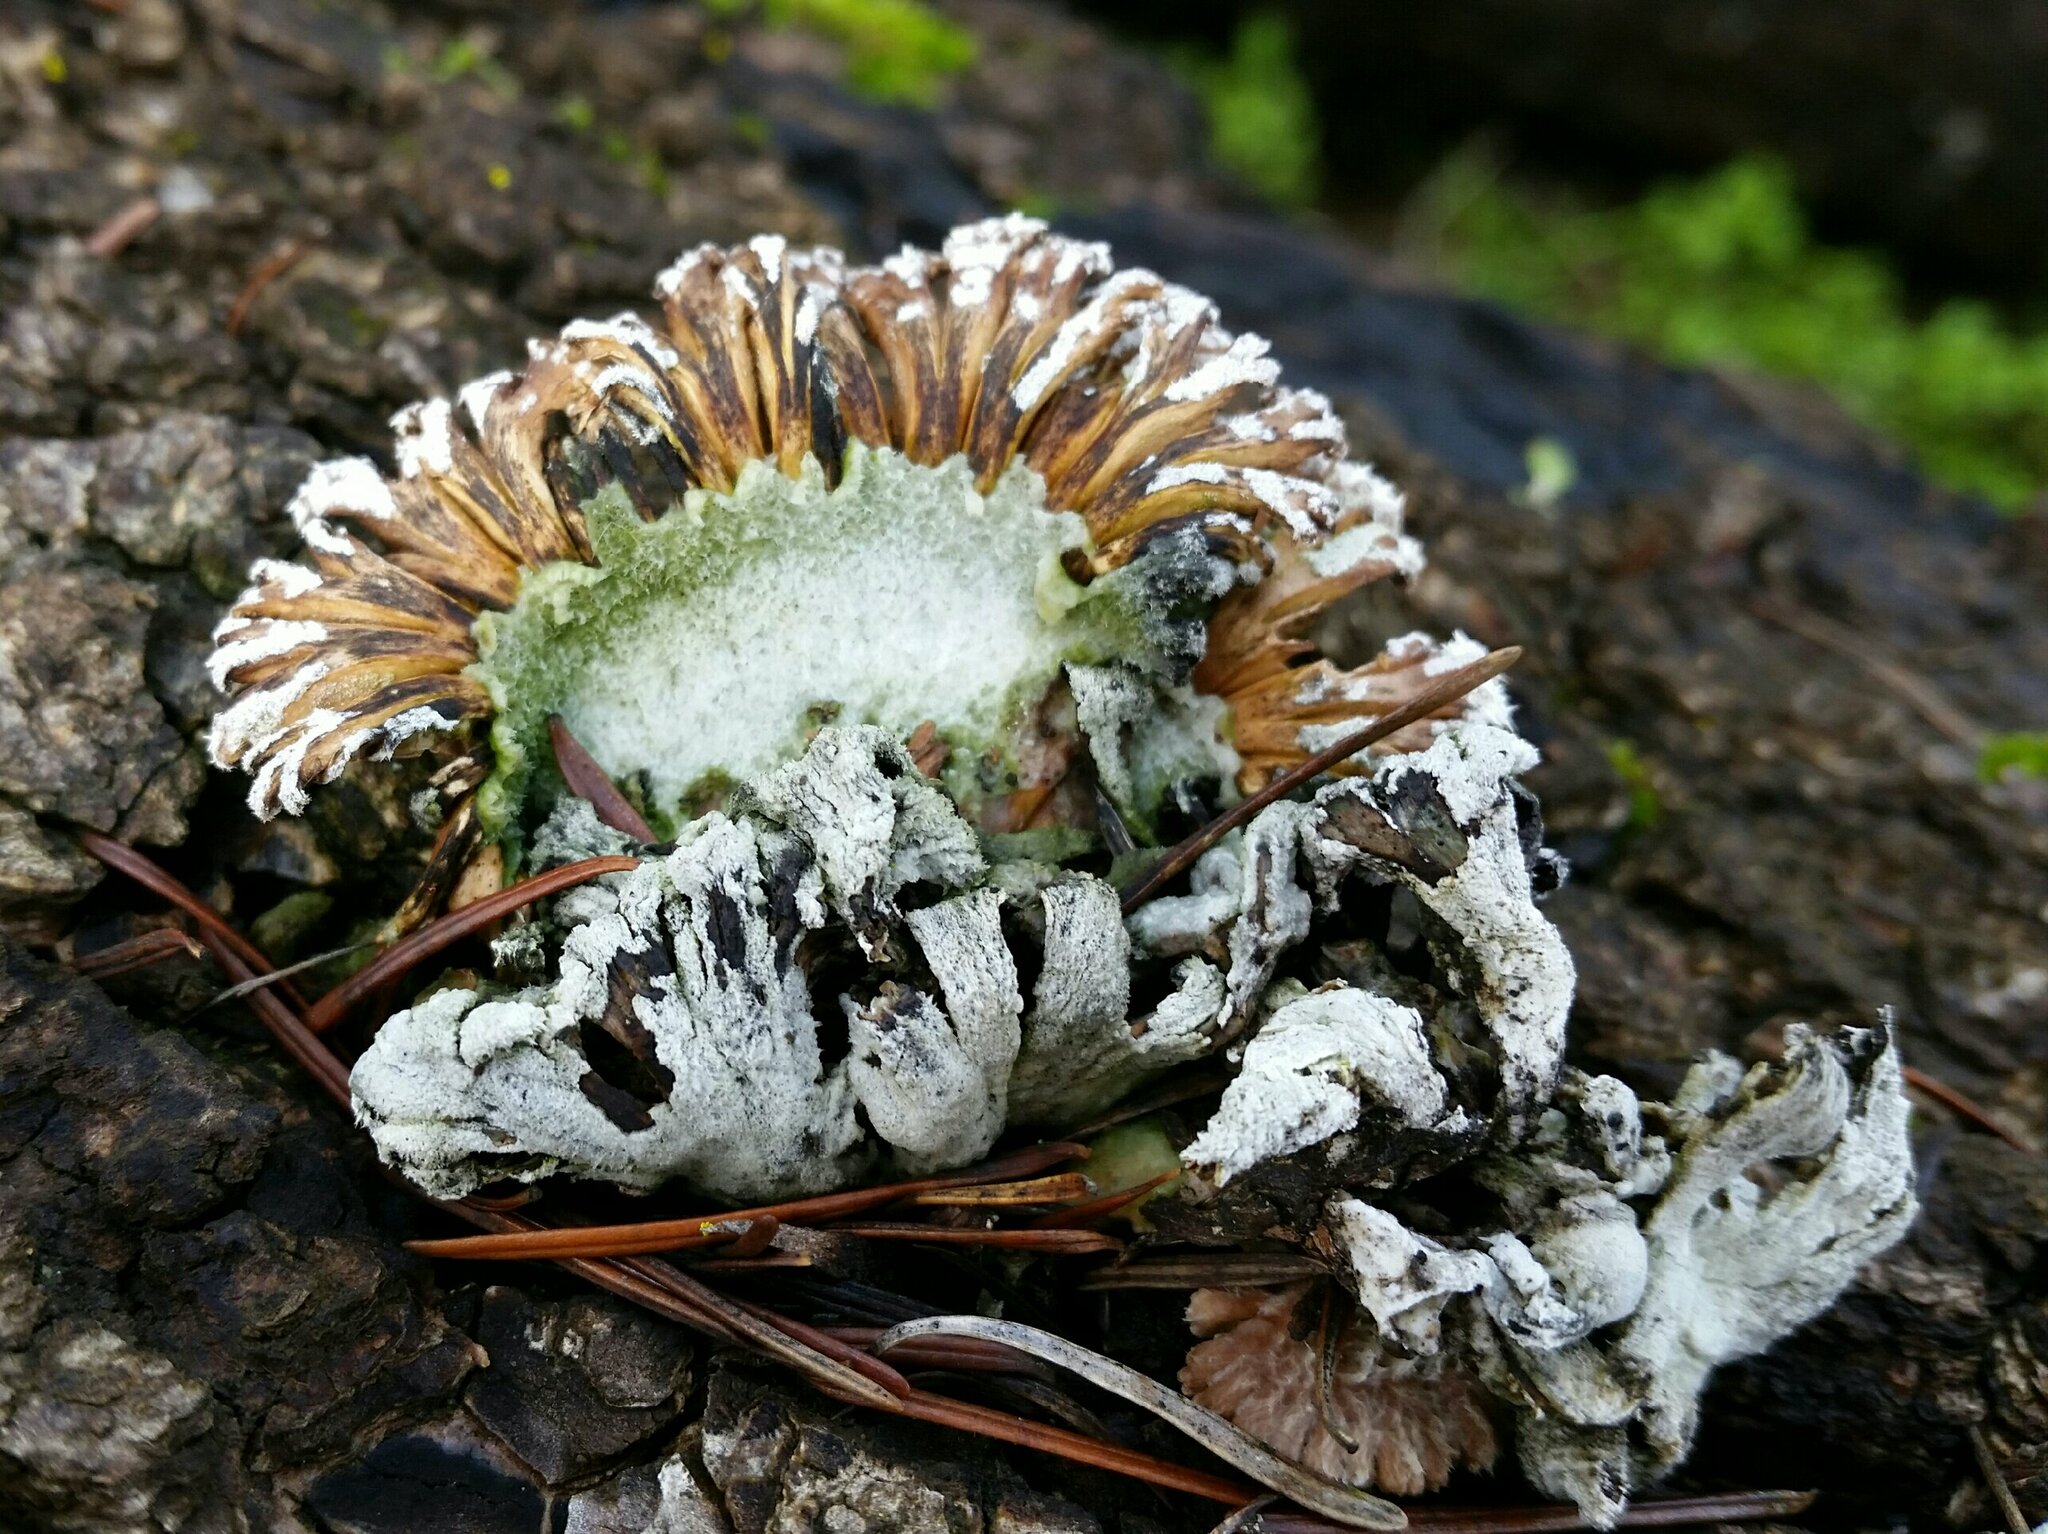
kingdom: Fungi
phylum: Basidiomycota
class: Agaricomycetes
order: Agaricales
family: Schizophyllaceae
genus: Schizophyllum
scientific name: Schizophyllum commune
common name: Common porecrust
